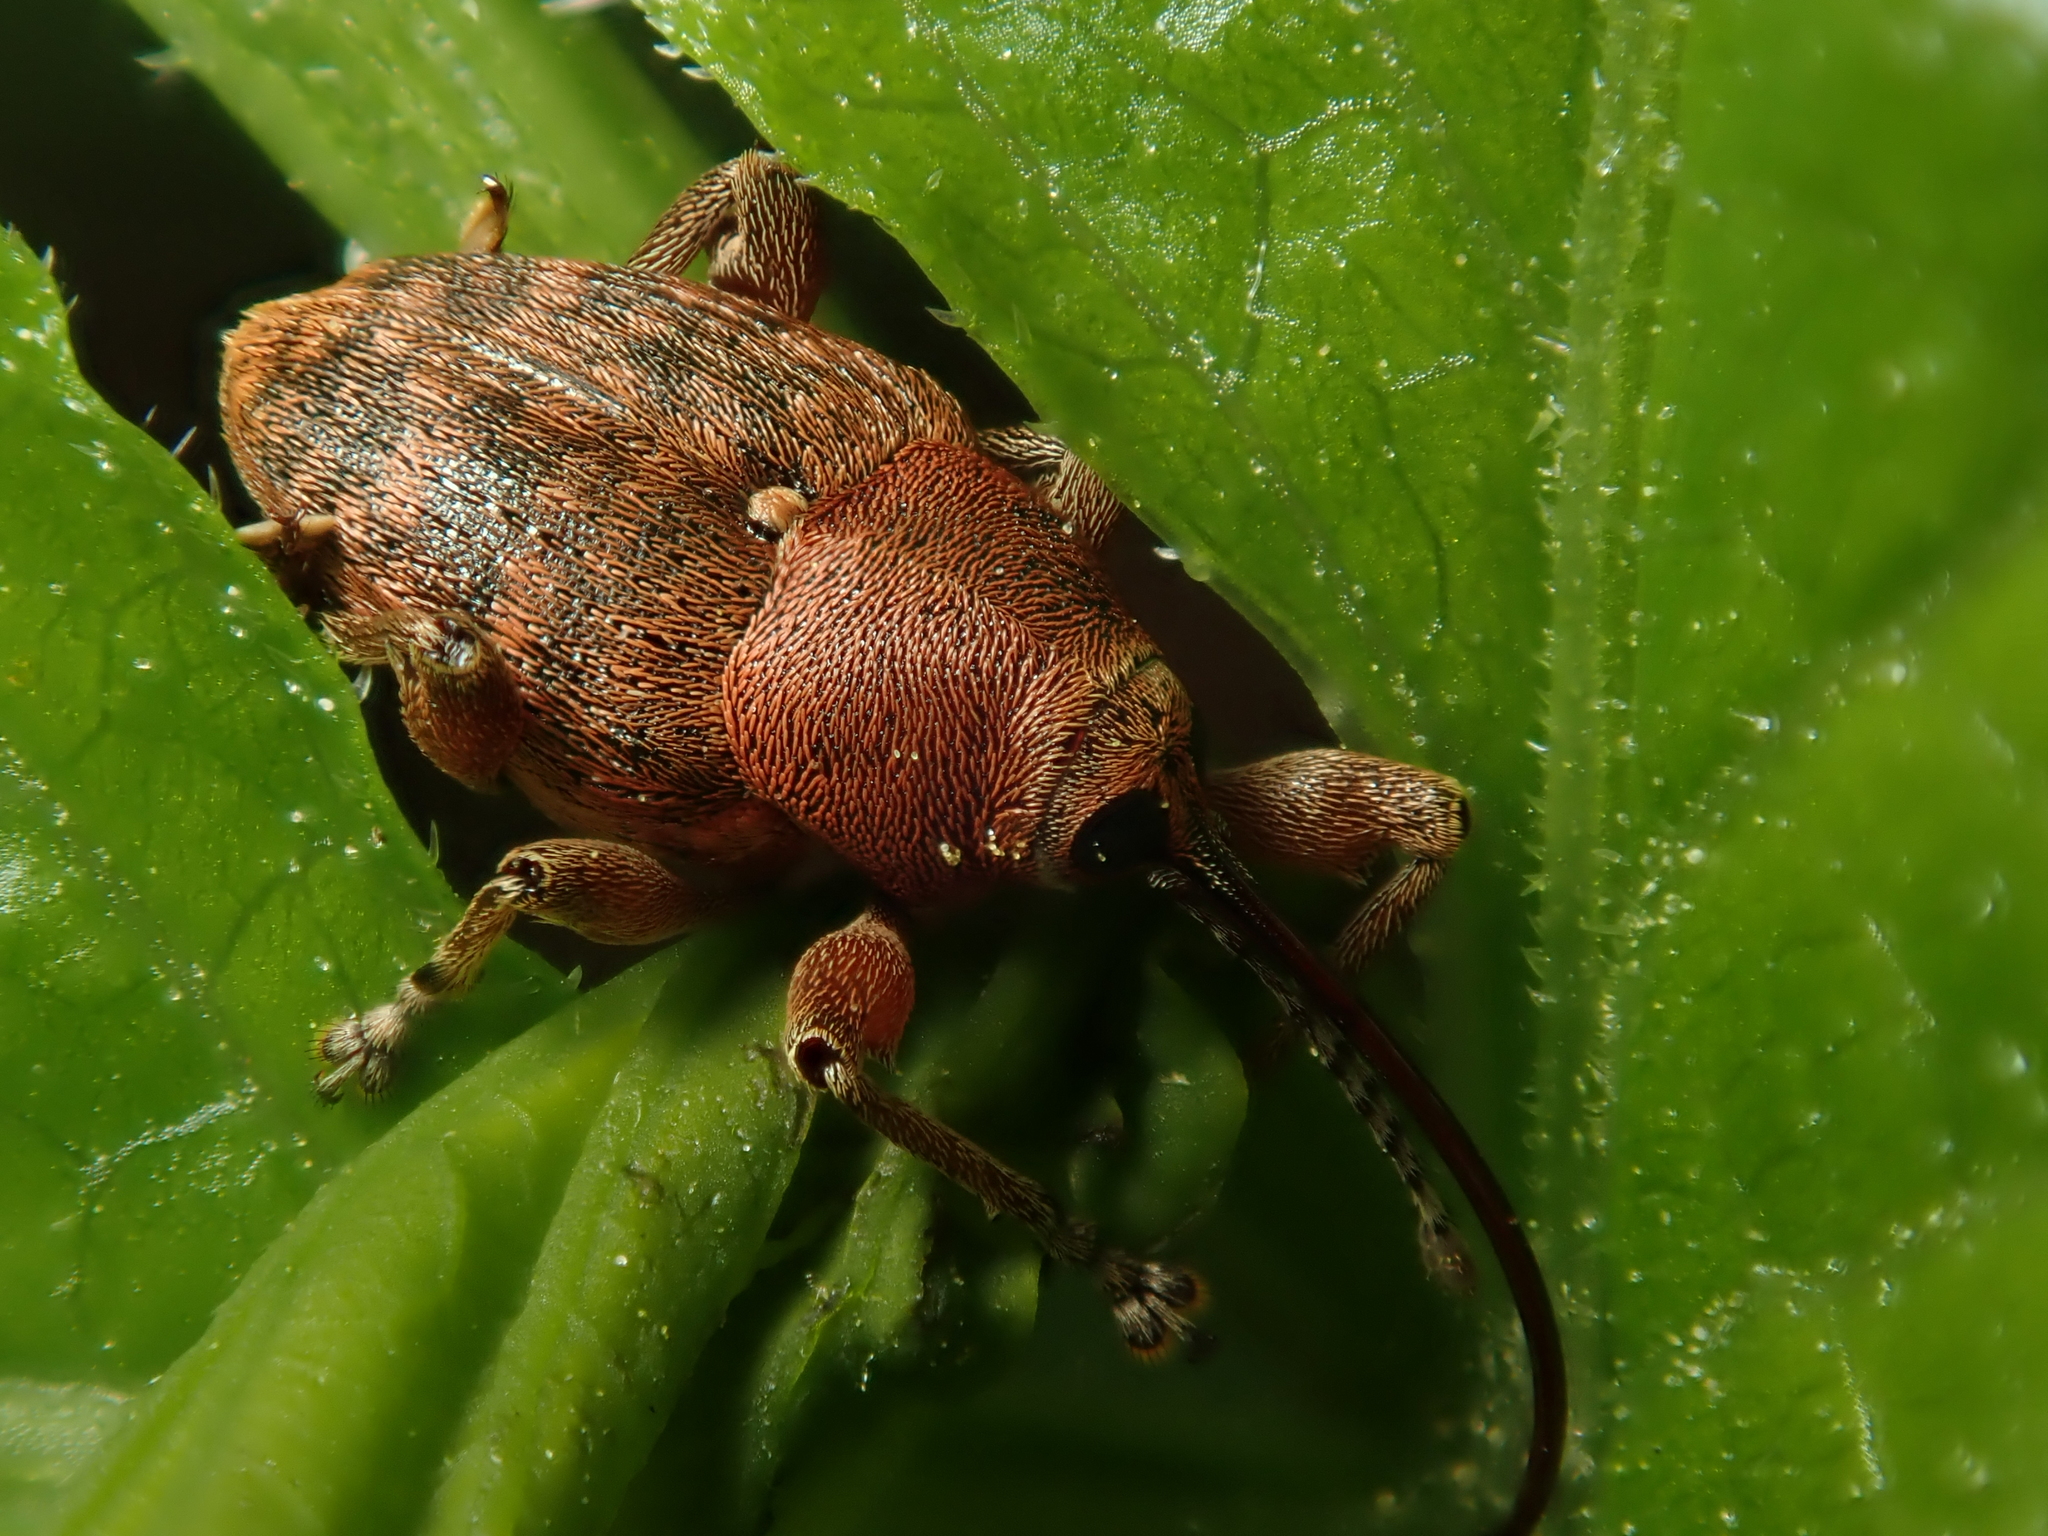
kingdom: Animalia
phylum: Arthropoda
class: Insecta
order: Coleoptera
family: Curculionidae
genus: Curculio
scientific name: Curculio glandium
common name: Acorn weevil
